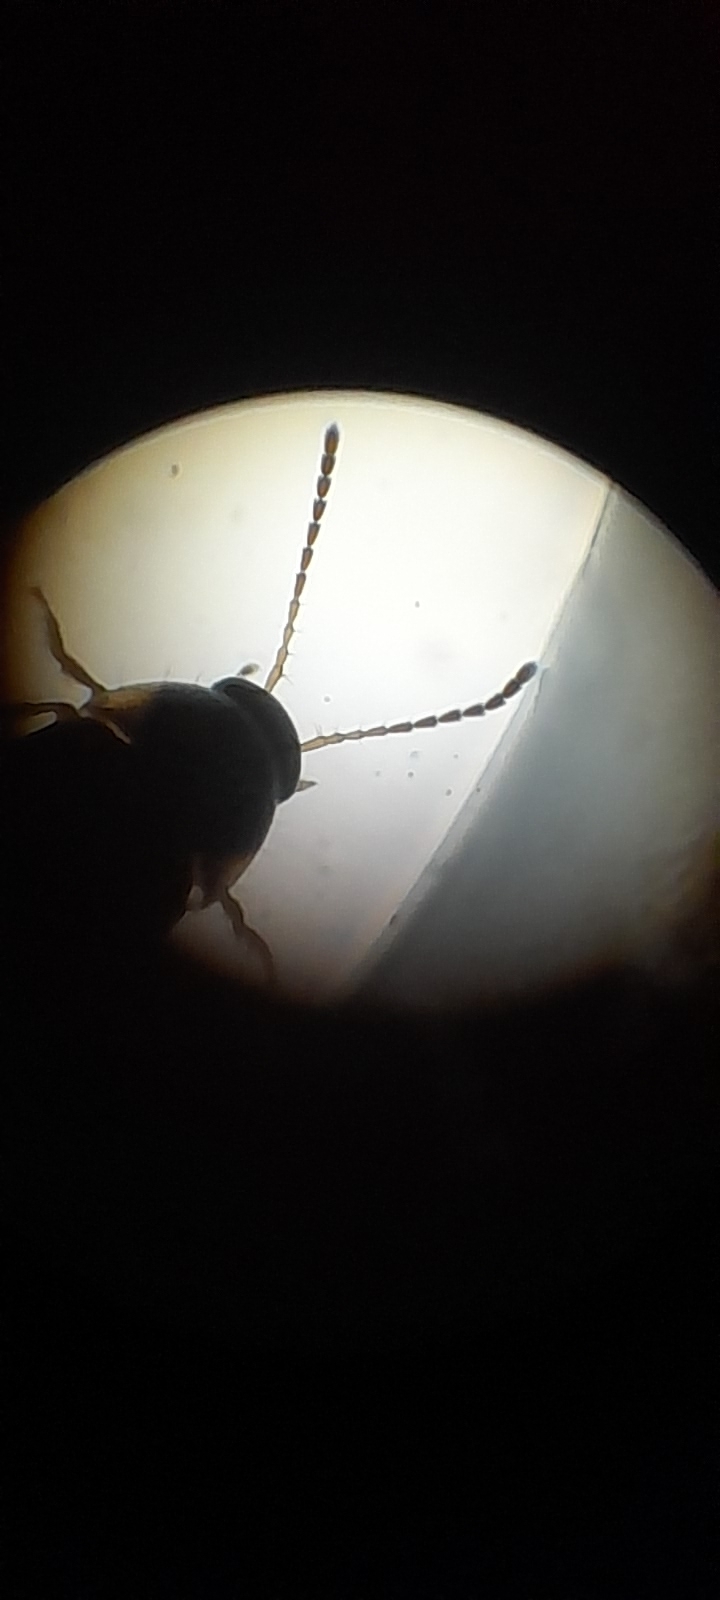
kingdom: Animalia
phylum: Arthropoda
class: Insecta
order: Coleoptera
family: Staphylinidae
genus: Tachyporus
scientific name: Tachyporus hypnorum
